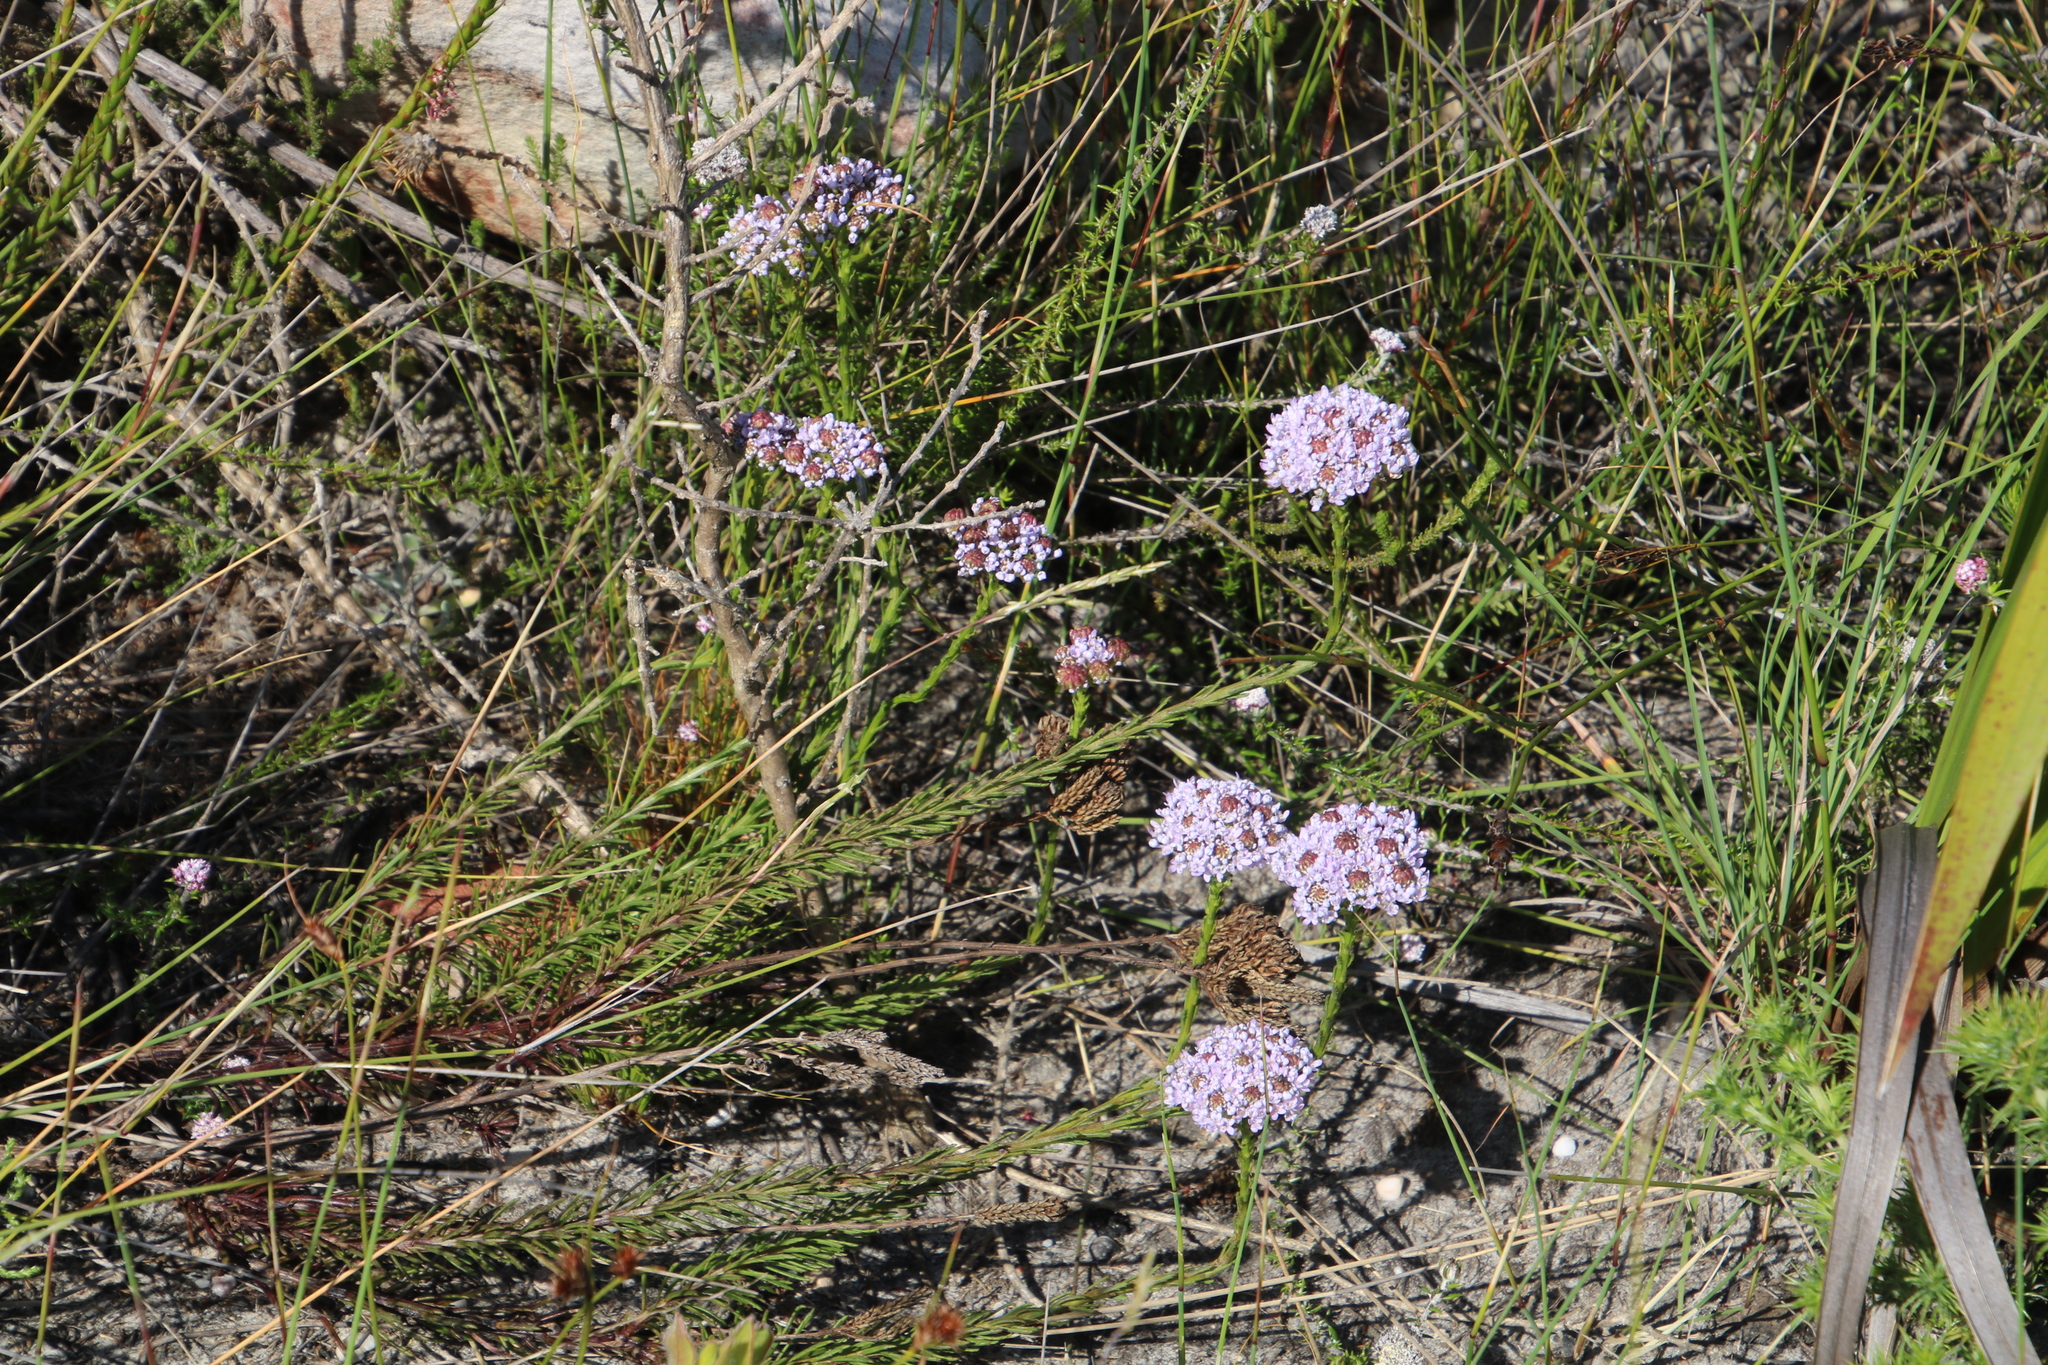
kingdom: Plantae
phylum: Tracheophyta
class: Magnoliopsida
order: Lamiales
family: Scrophulariaceae
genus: Pseudoselago
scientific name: Pseudoselago spuria
